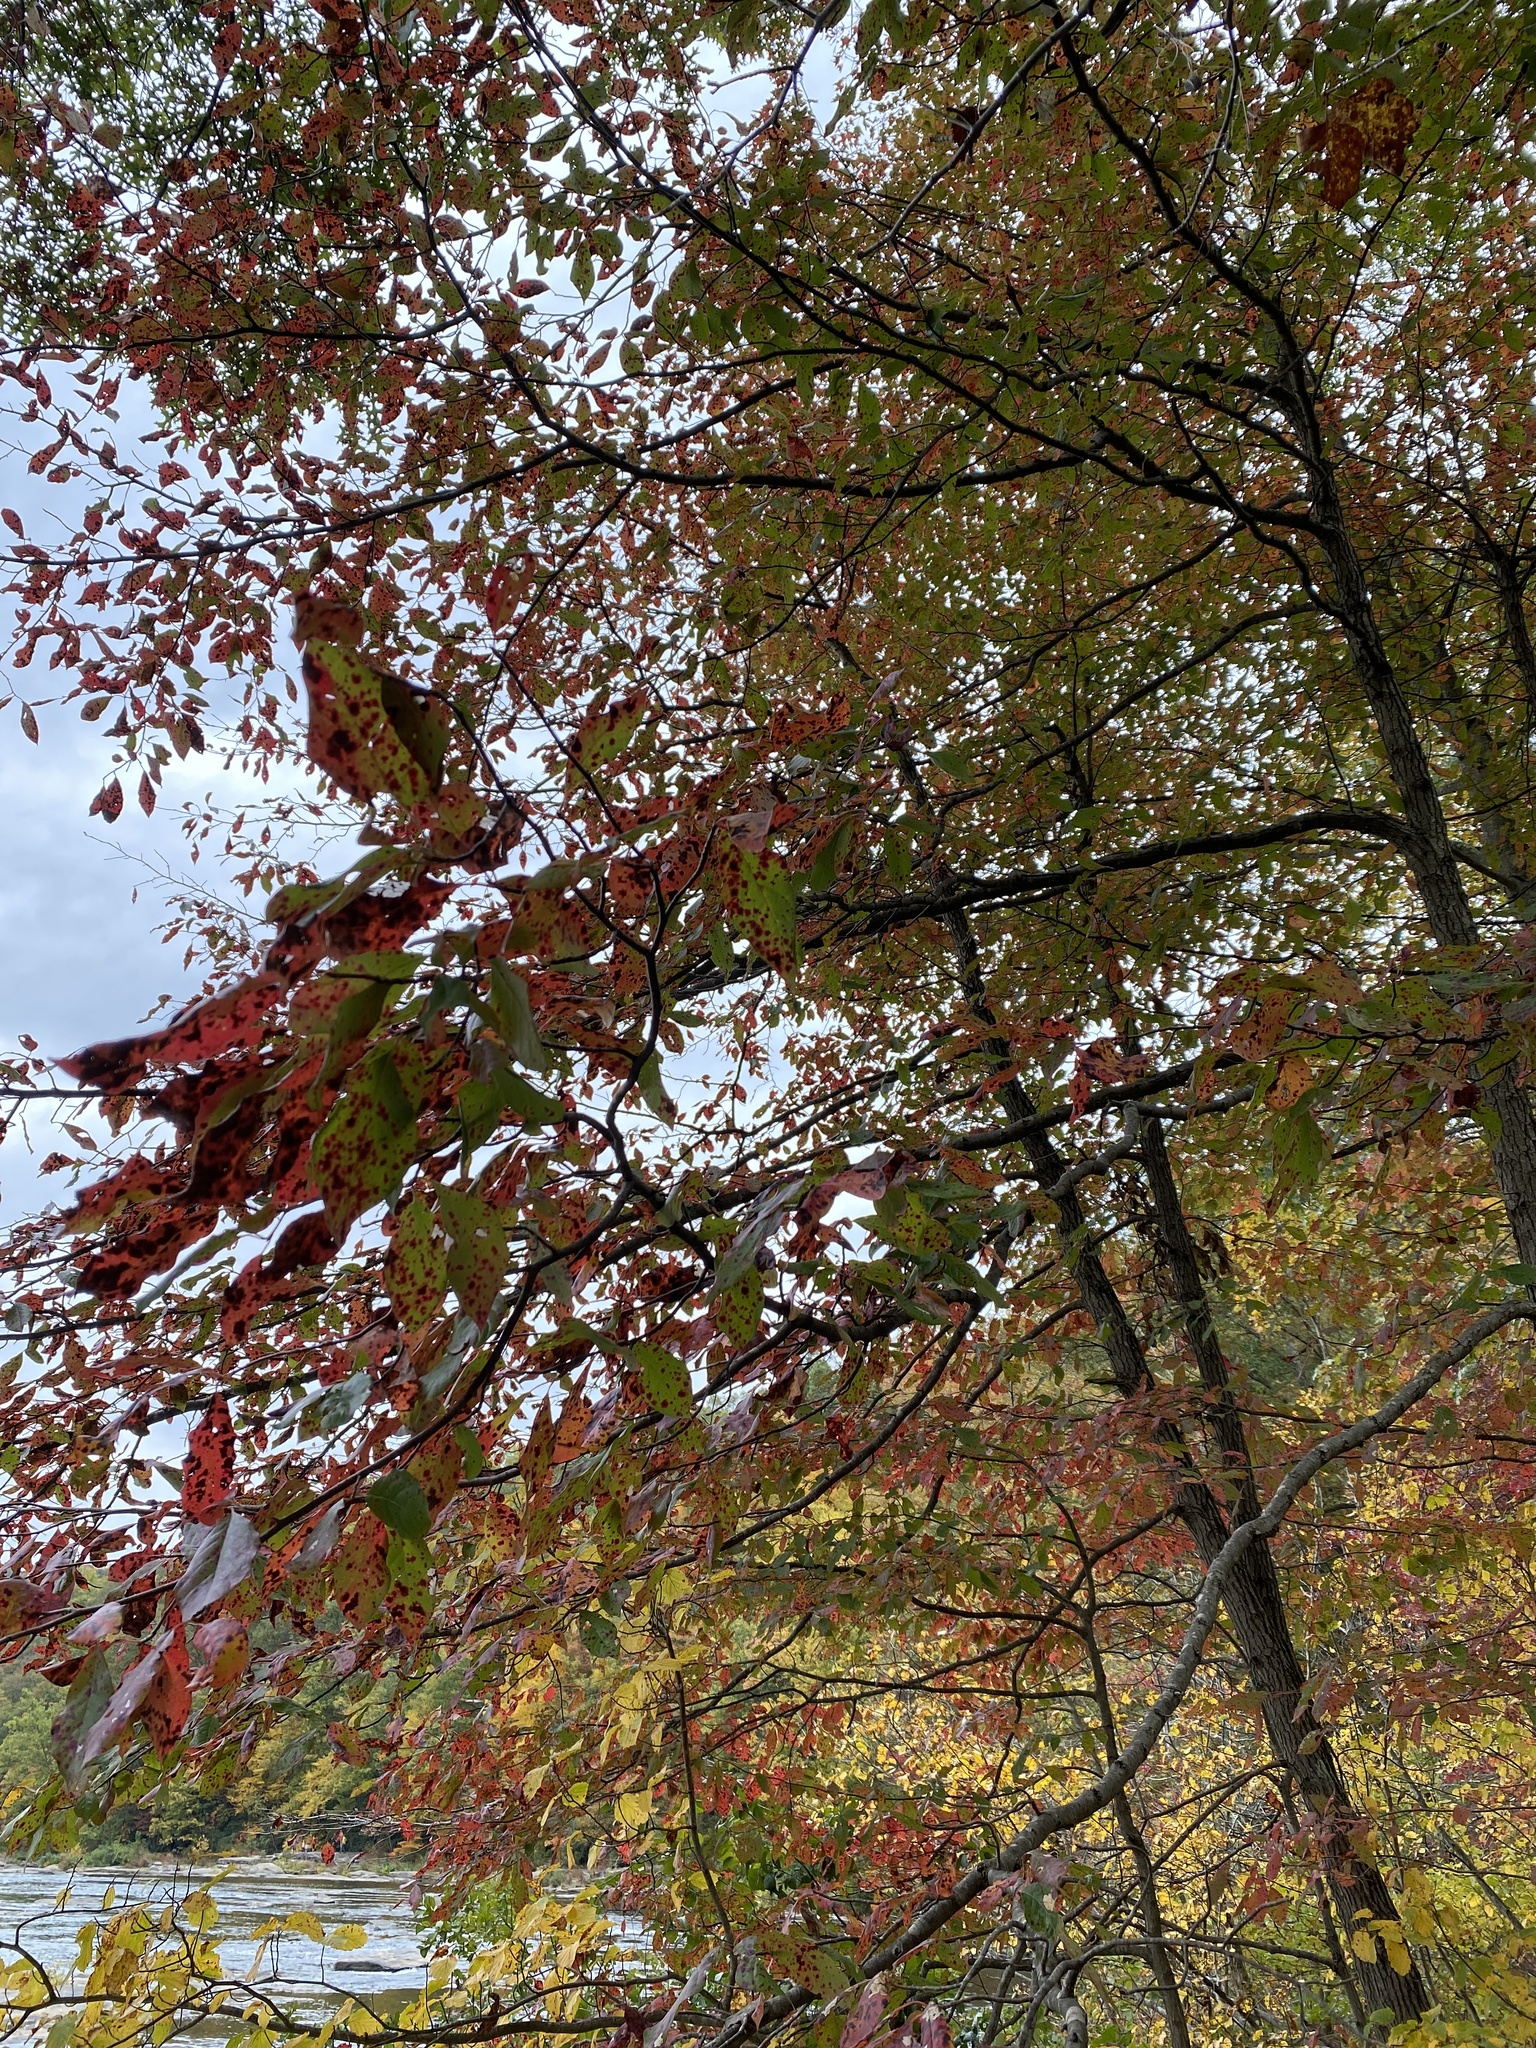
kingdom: Plantae
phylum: Tracheophyta
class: Magnoliopsida
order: Cornales
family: Nyssaceae
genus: Nyssa
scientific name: Nyssa sylvatica
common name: Black tupelo
